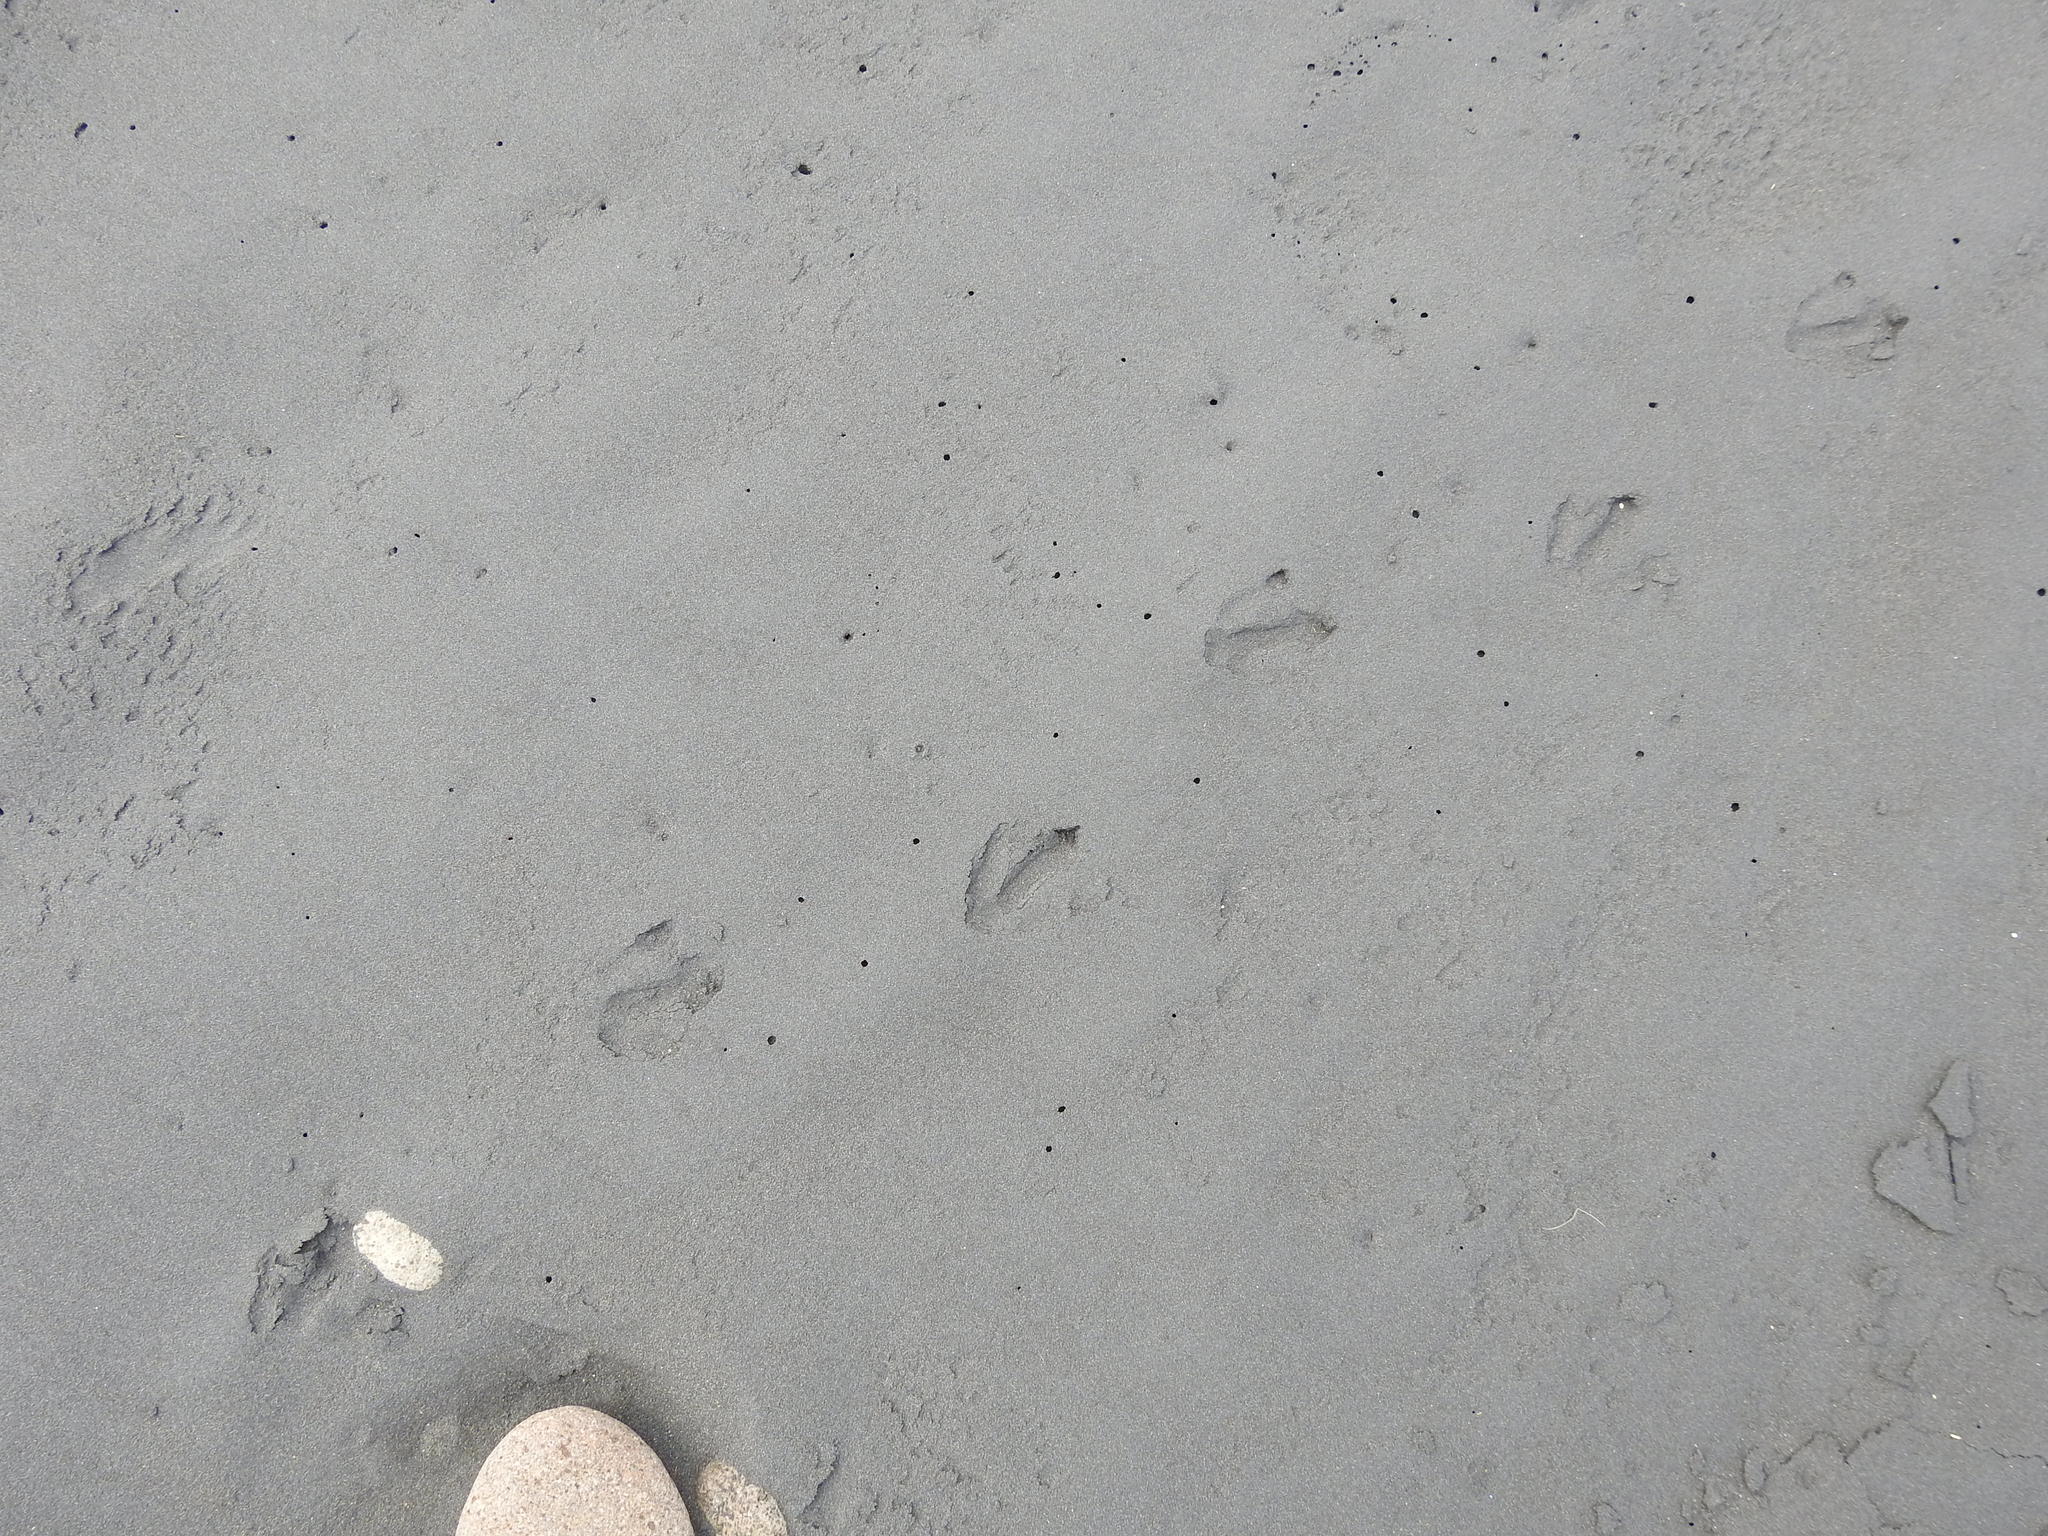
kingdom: Animalia
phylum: Chordata
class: Aves
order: Sphenisciformes
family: Spheniscidae
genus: Eudyptula
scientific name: Eudyptula minor
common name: Little penguin
